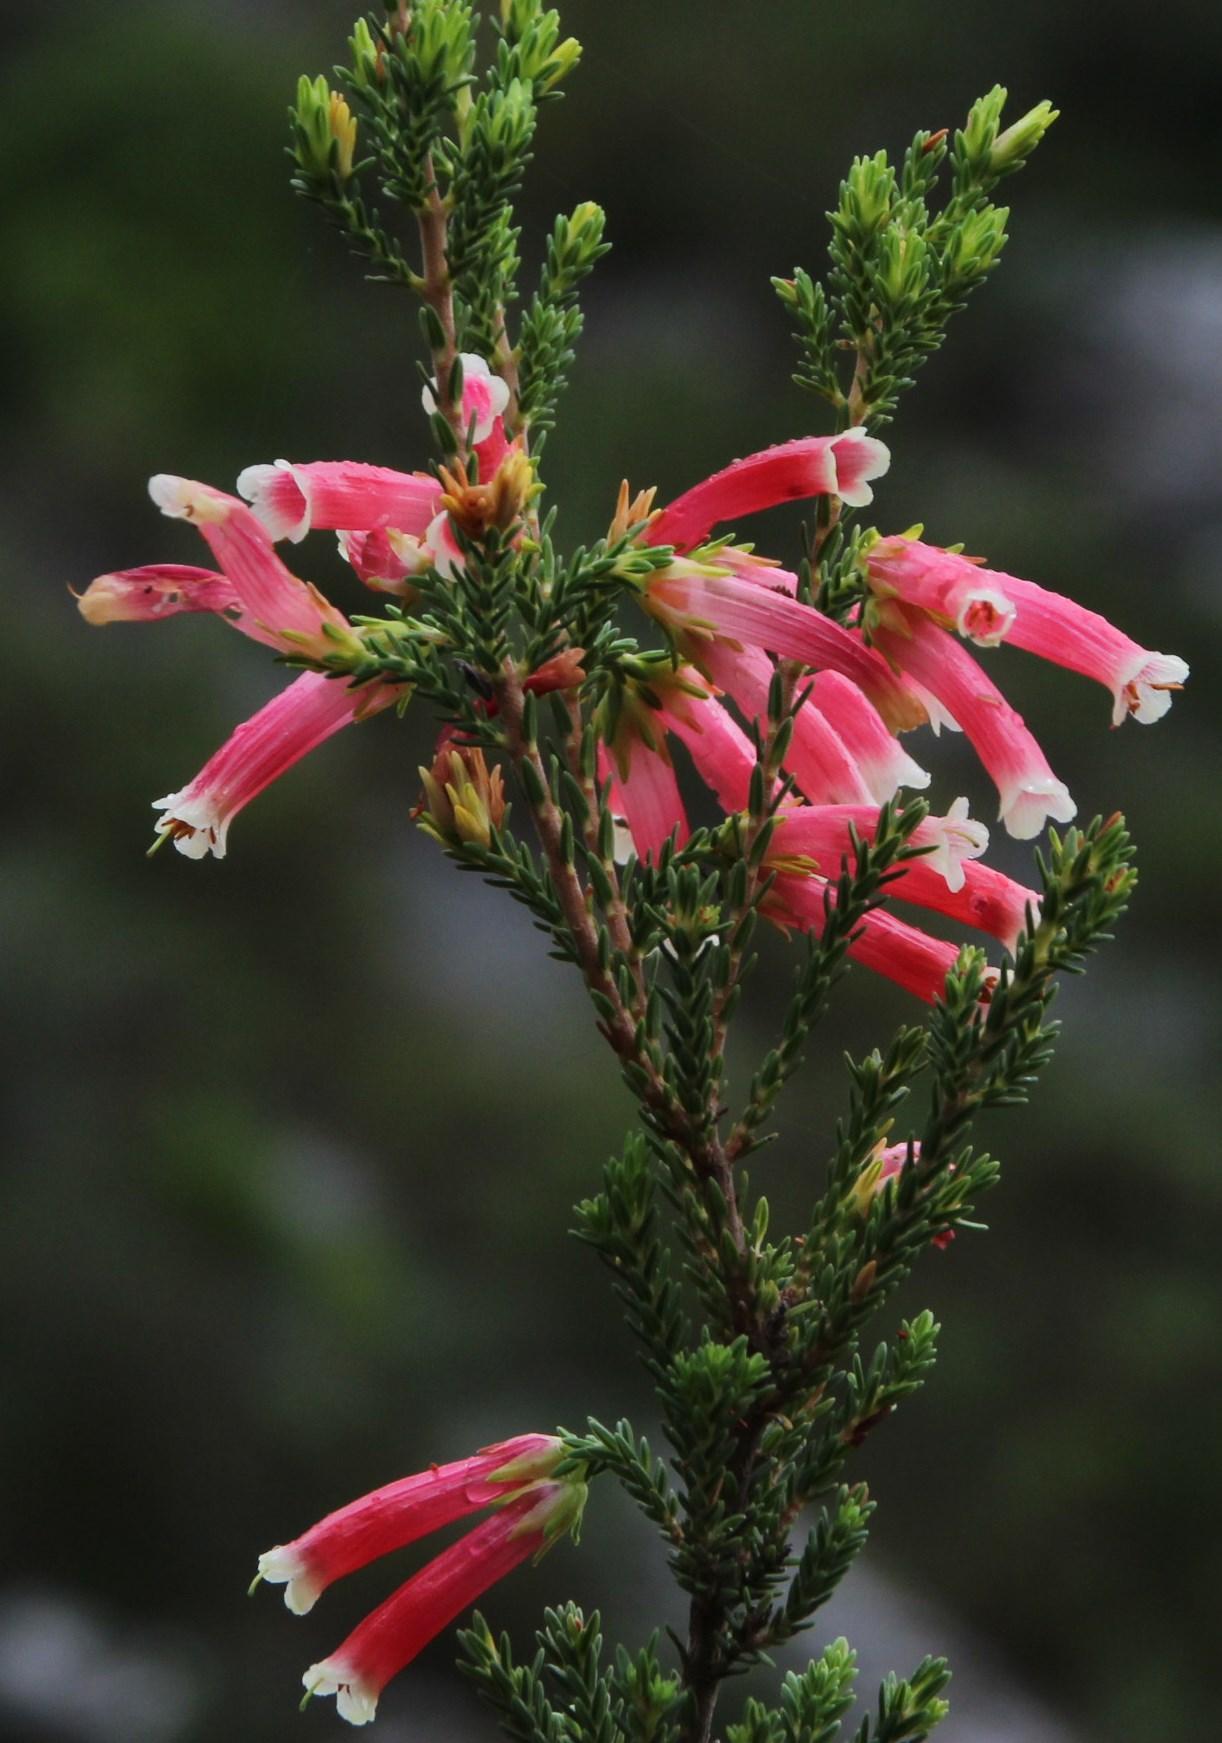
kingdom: Plantae
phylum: Tracheophyta
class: Magnoliopsida
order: Ericales
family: Ericaceae
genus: Erica
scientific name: Erica versicolor
